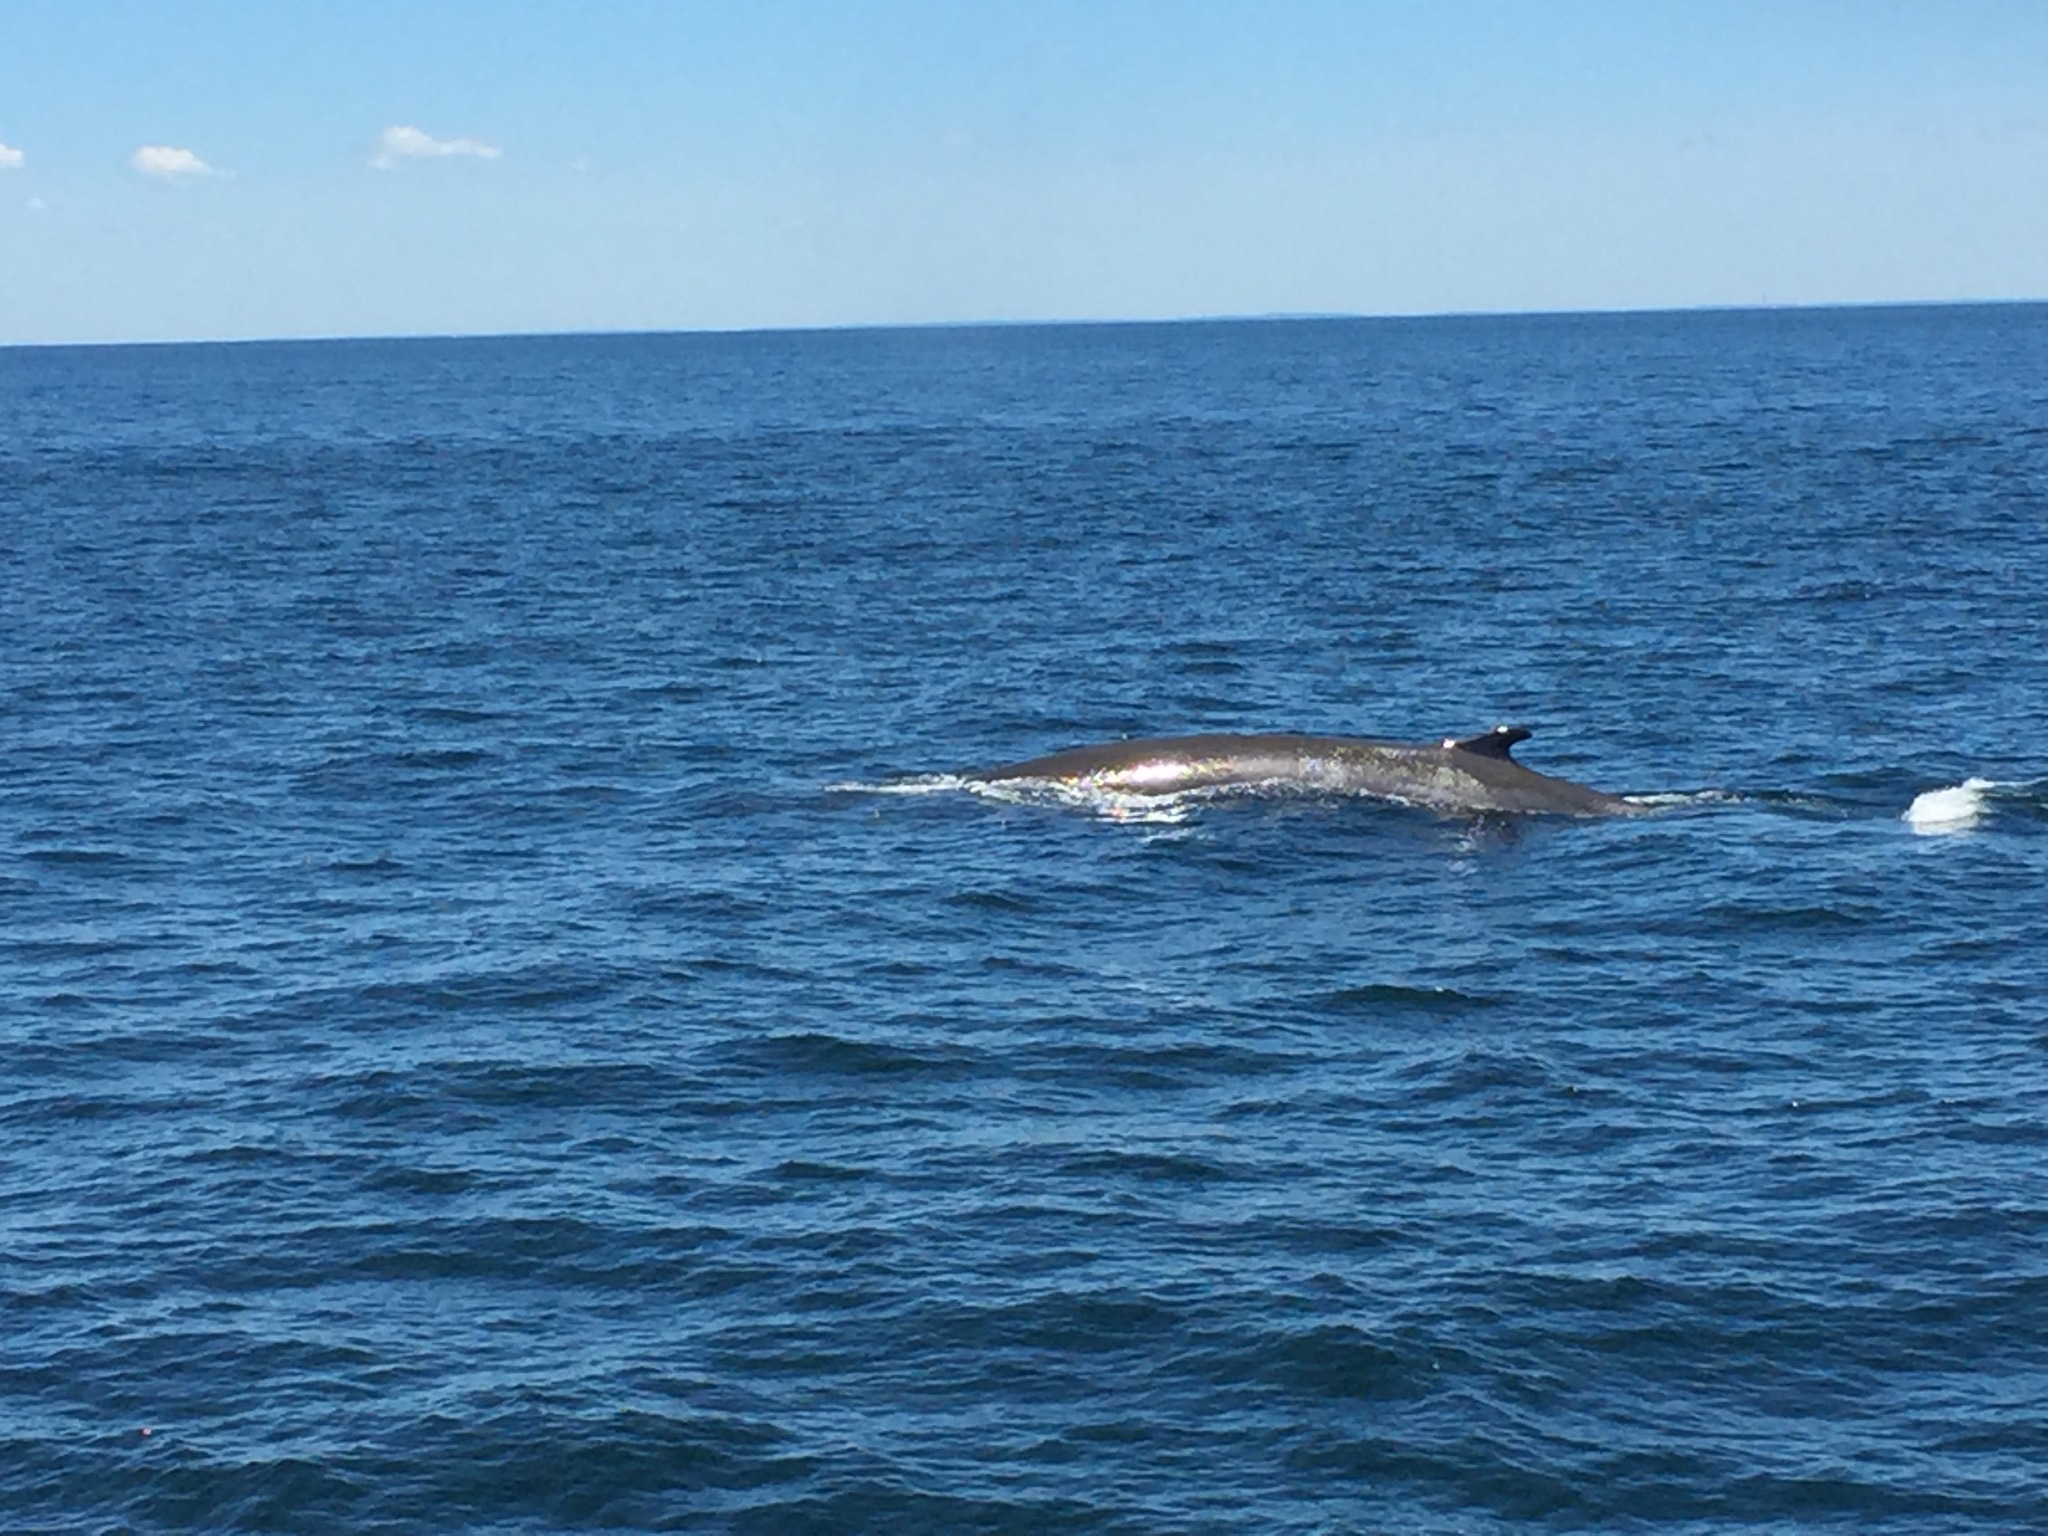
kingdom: Animalia
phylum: Chordata
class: Mammalia
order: Cetacea
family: Balaenopteridae
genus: Balaenoptera
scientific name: Balaenoptera physalus
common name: Fin whale
